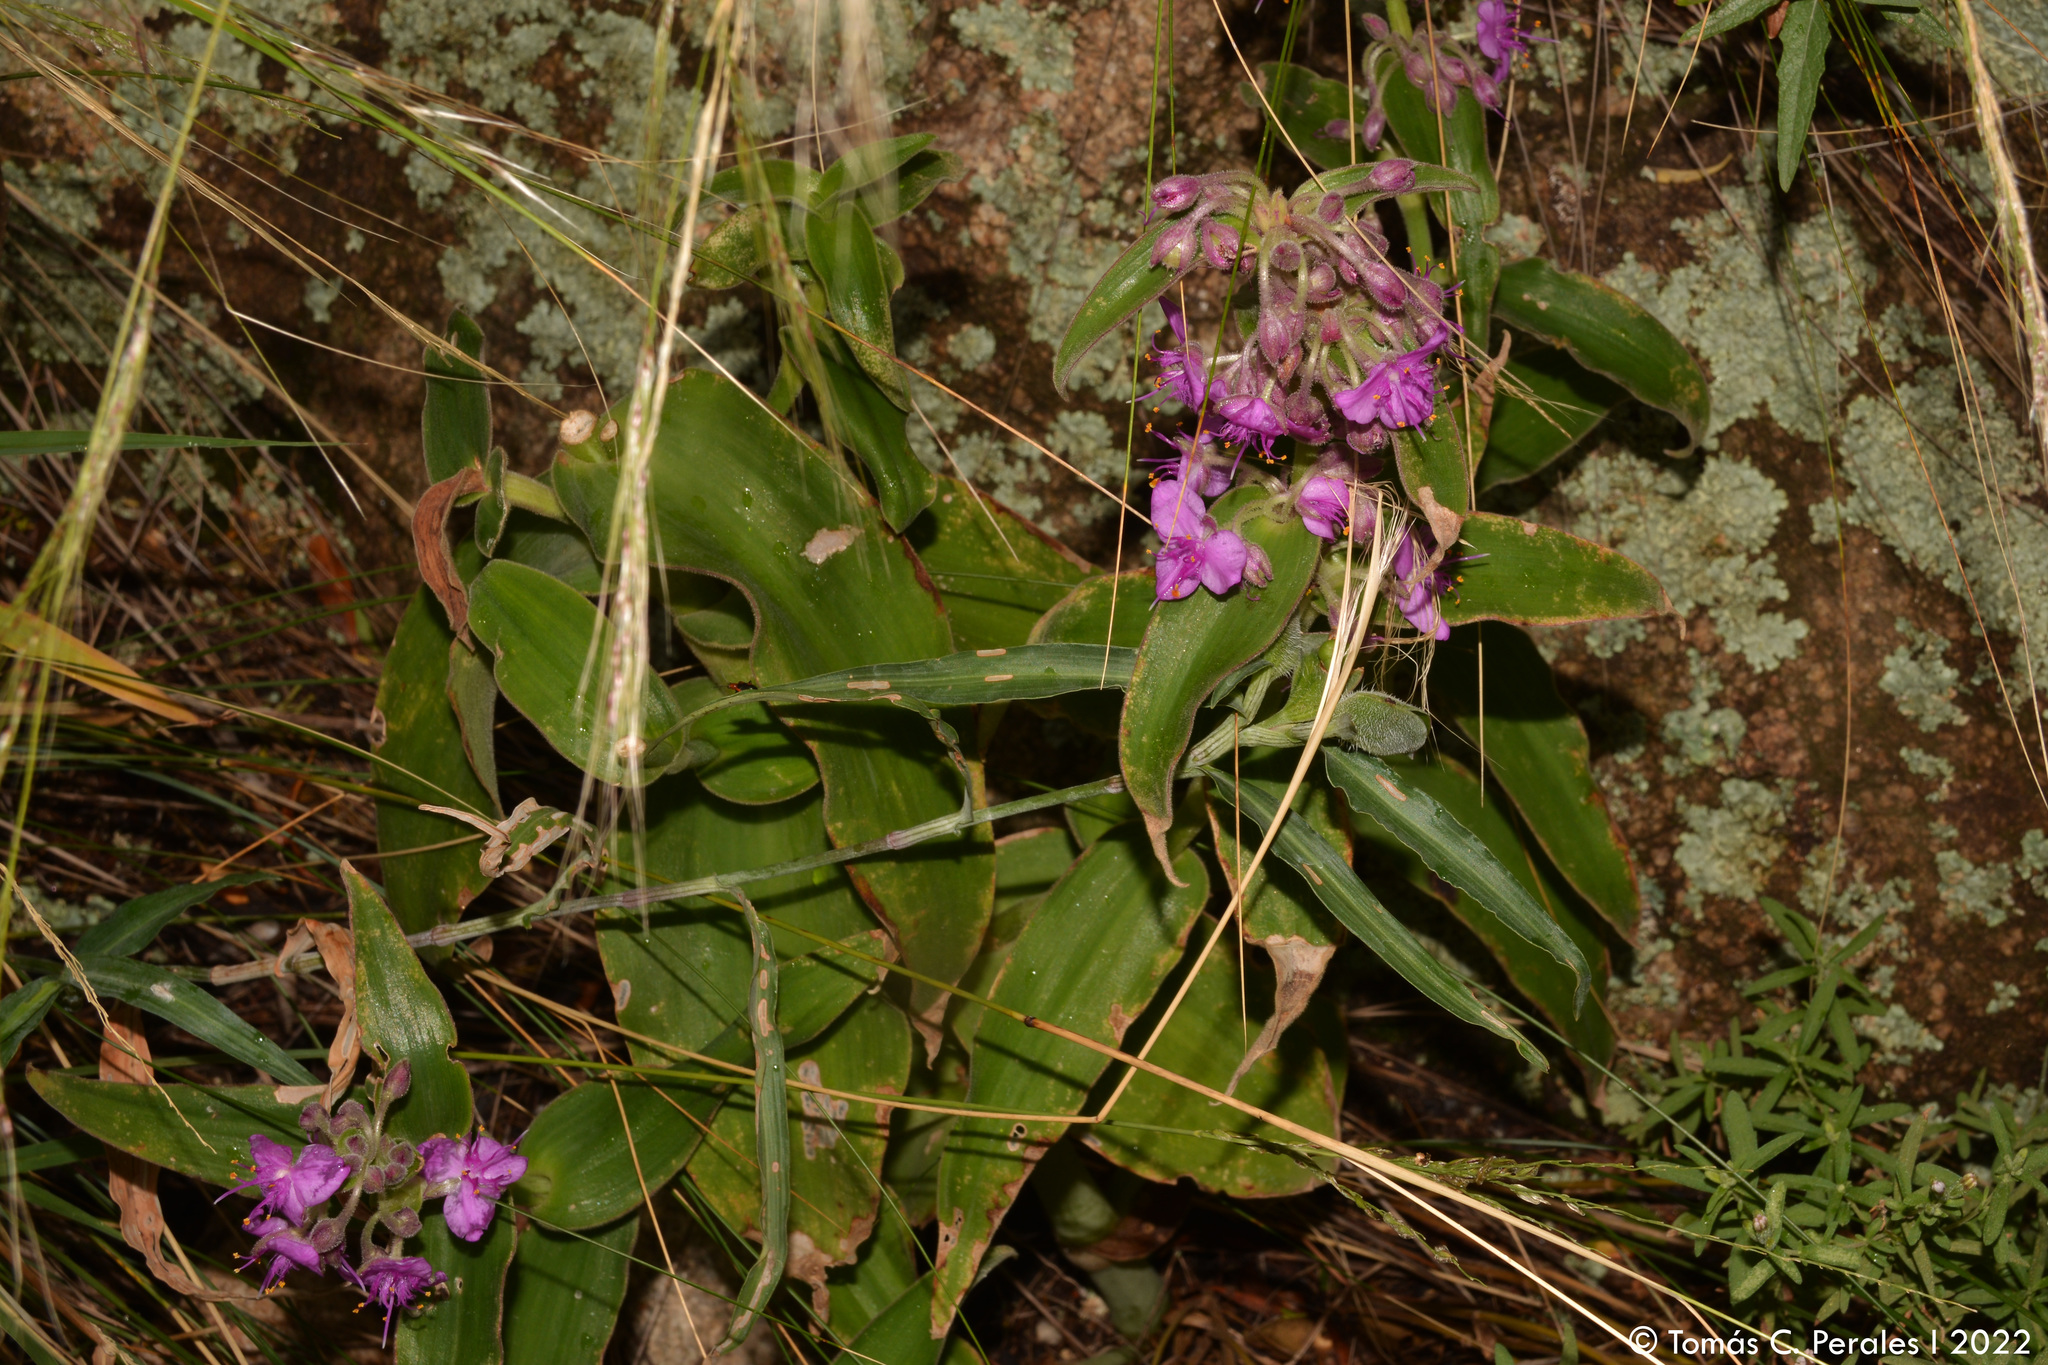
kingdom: Plantae
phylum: Tracheophyta
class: Liliopsida
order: Commelinales
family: Commelinaceae
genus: Tradescantia
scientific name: Tradescantia boliviana
